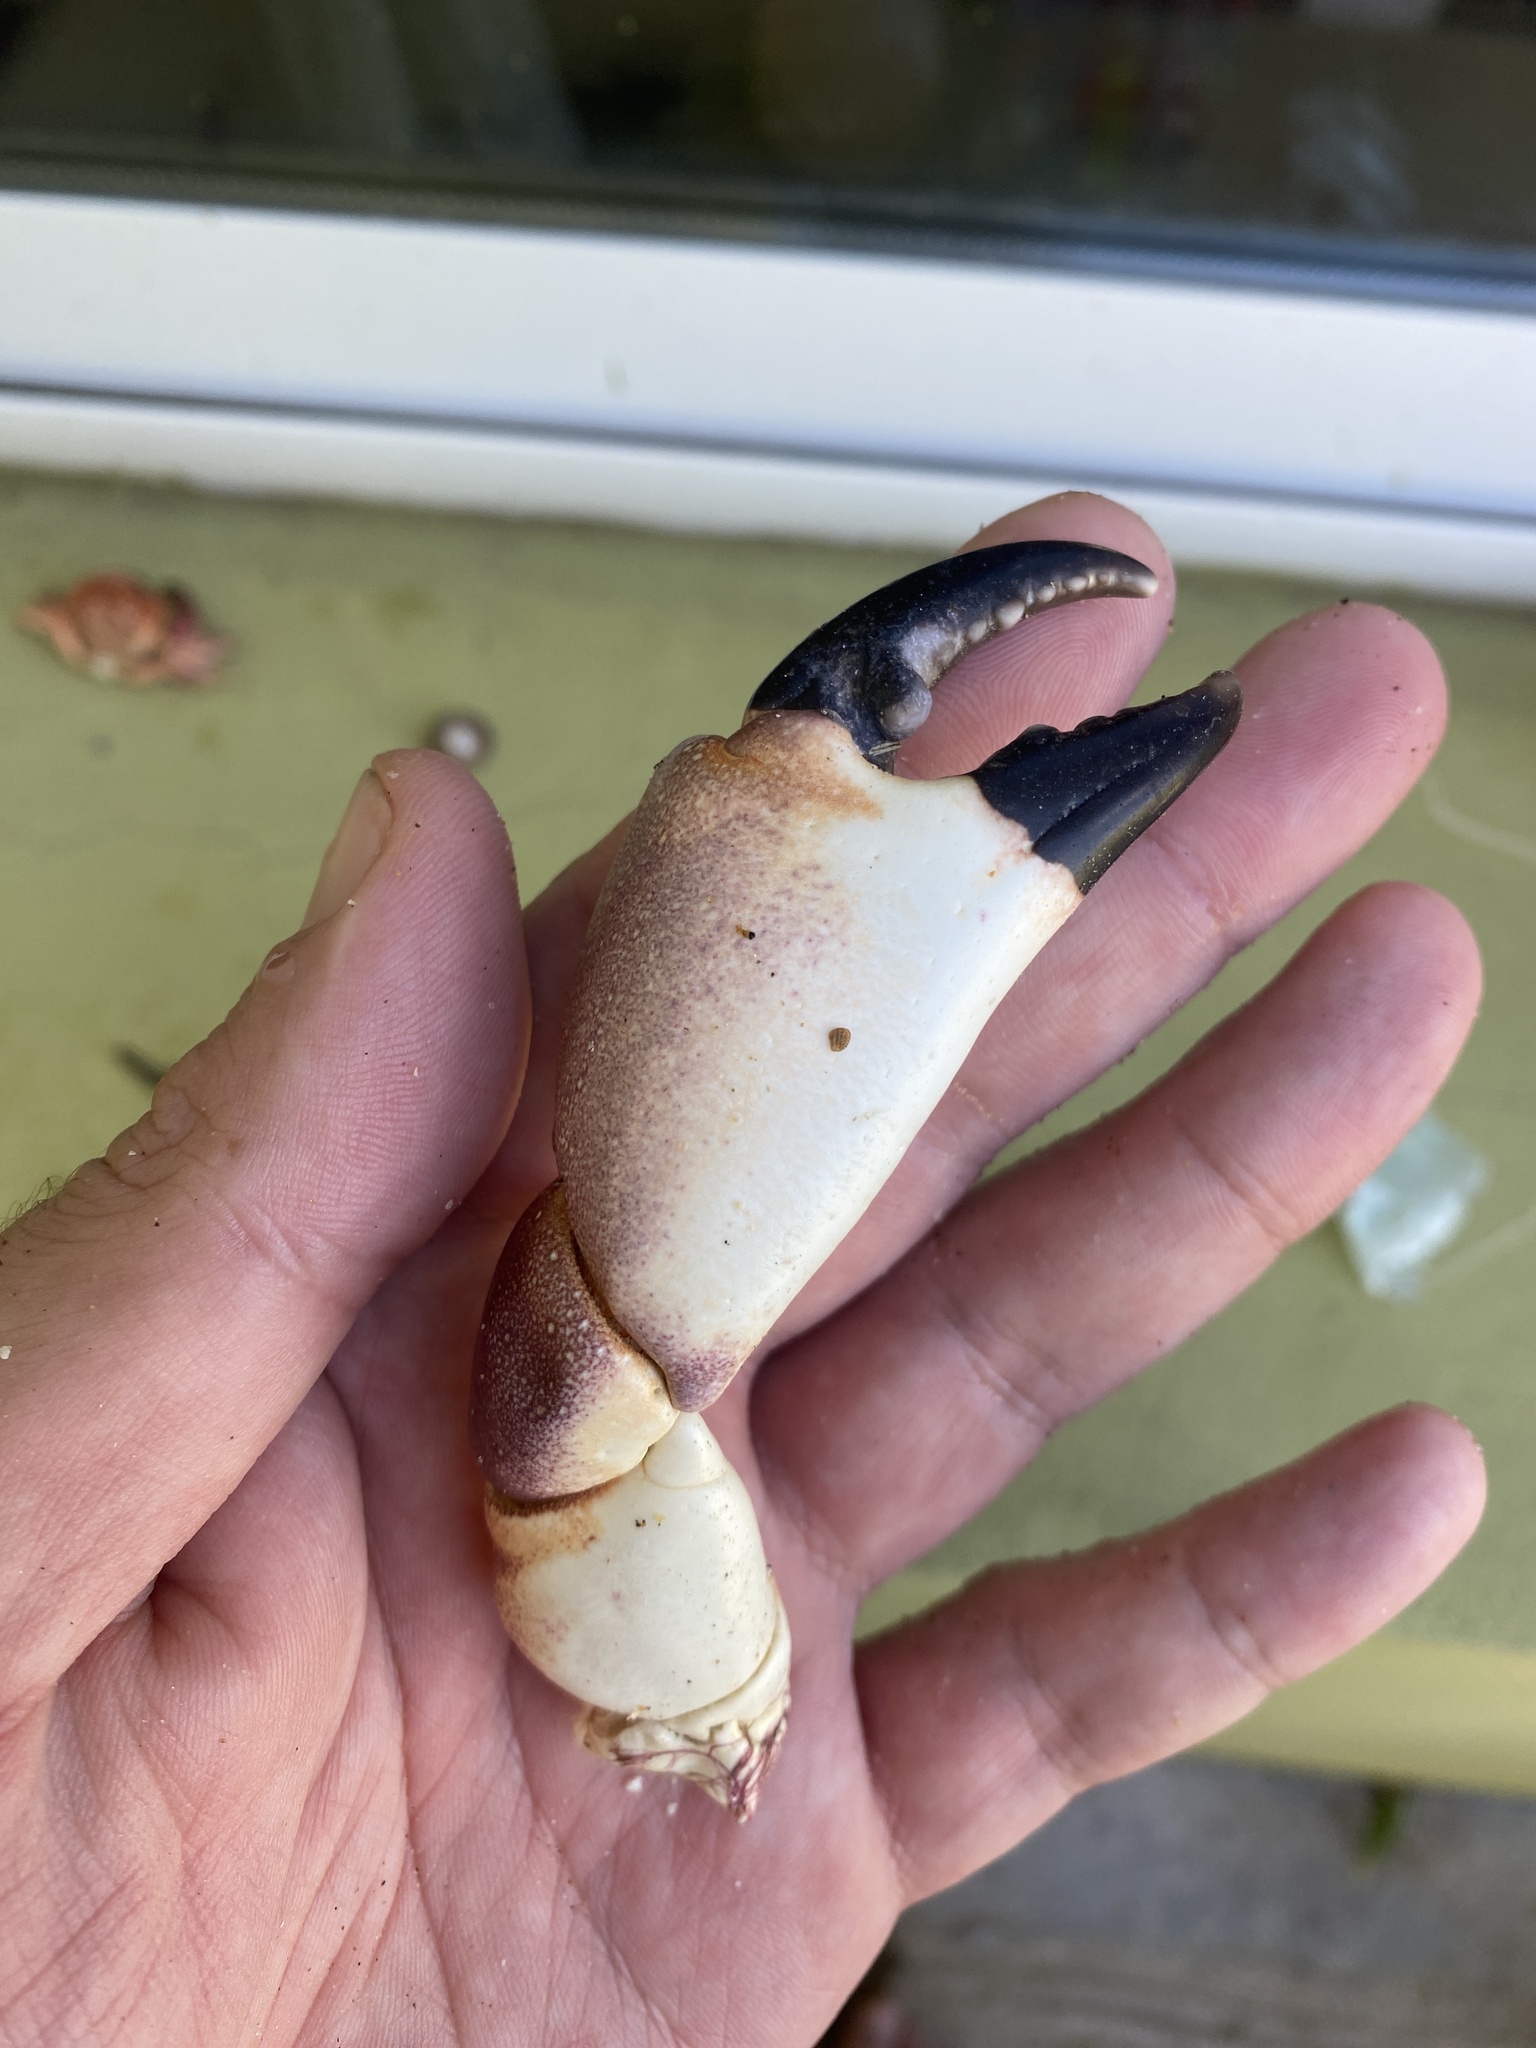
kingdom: Animalia
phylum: Arthropoda
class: Malacostraca
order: Decapoda
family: Platyxanthidae
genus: Danielethus
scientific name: Danielethus crenulatus
